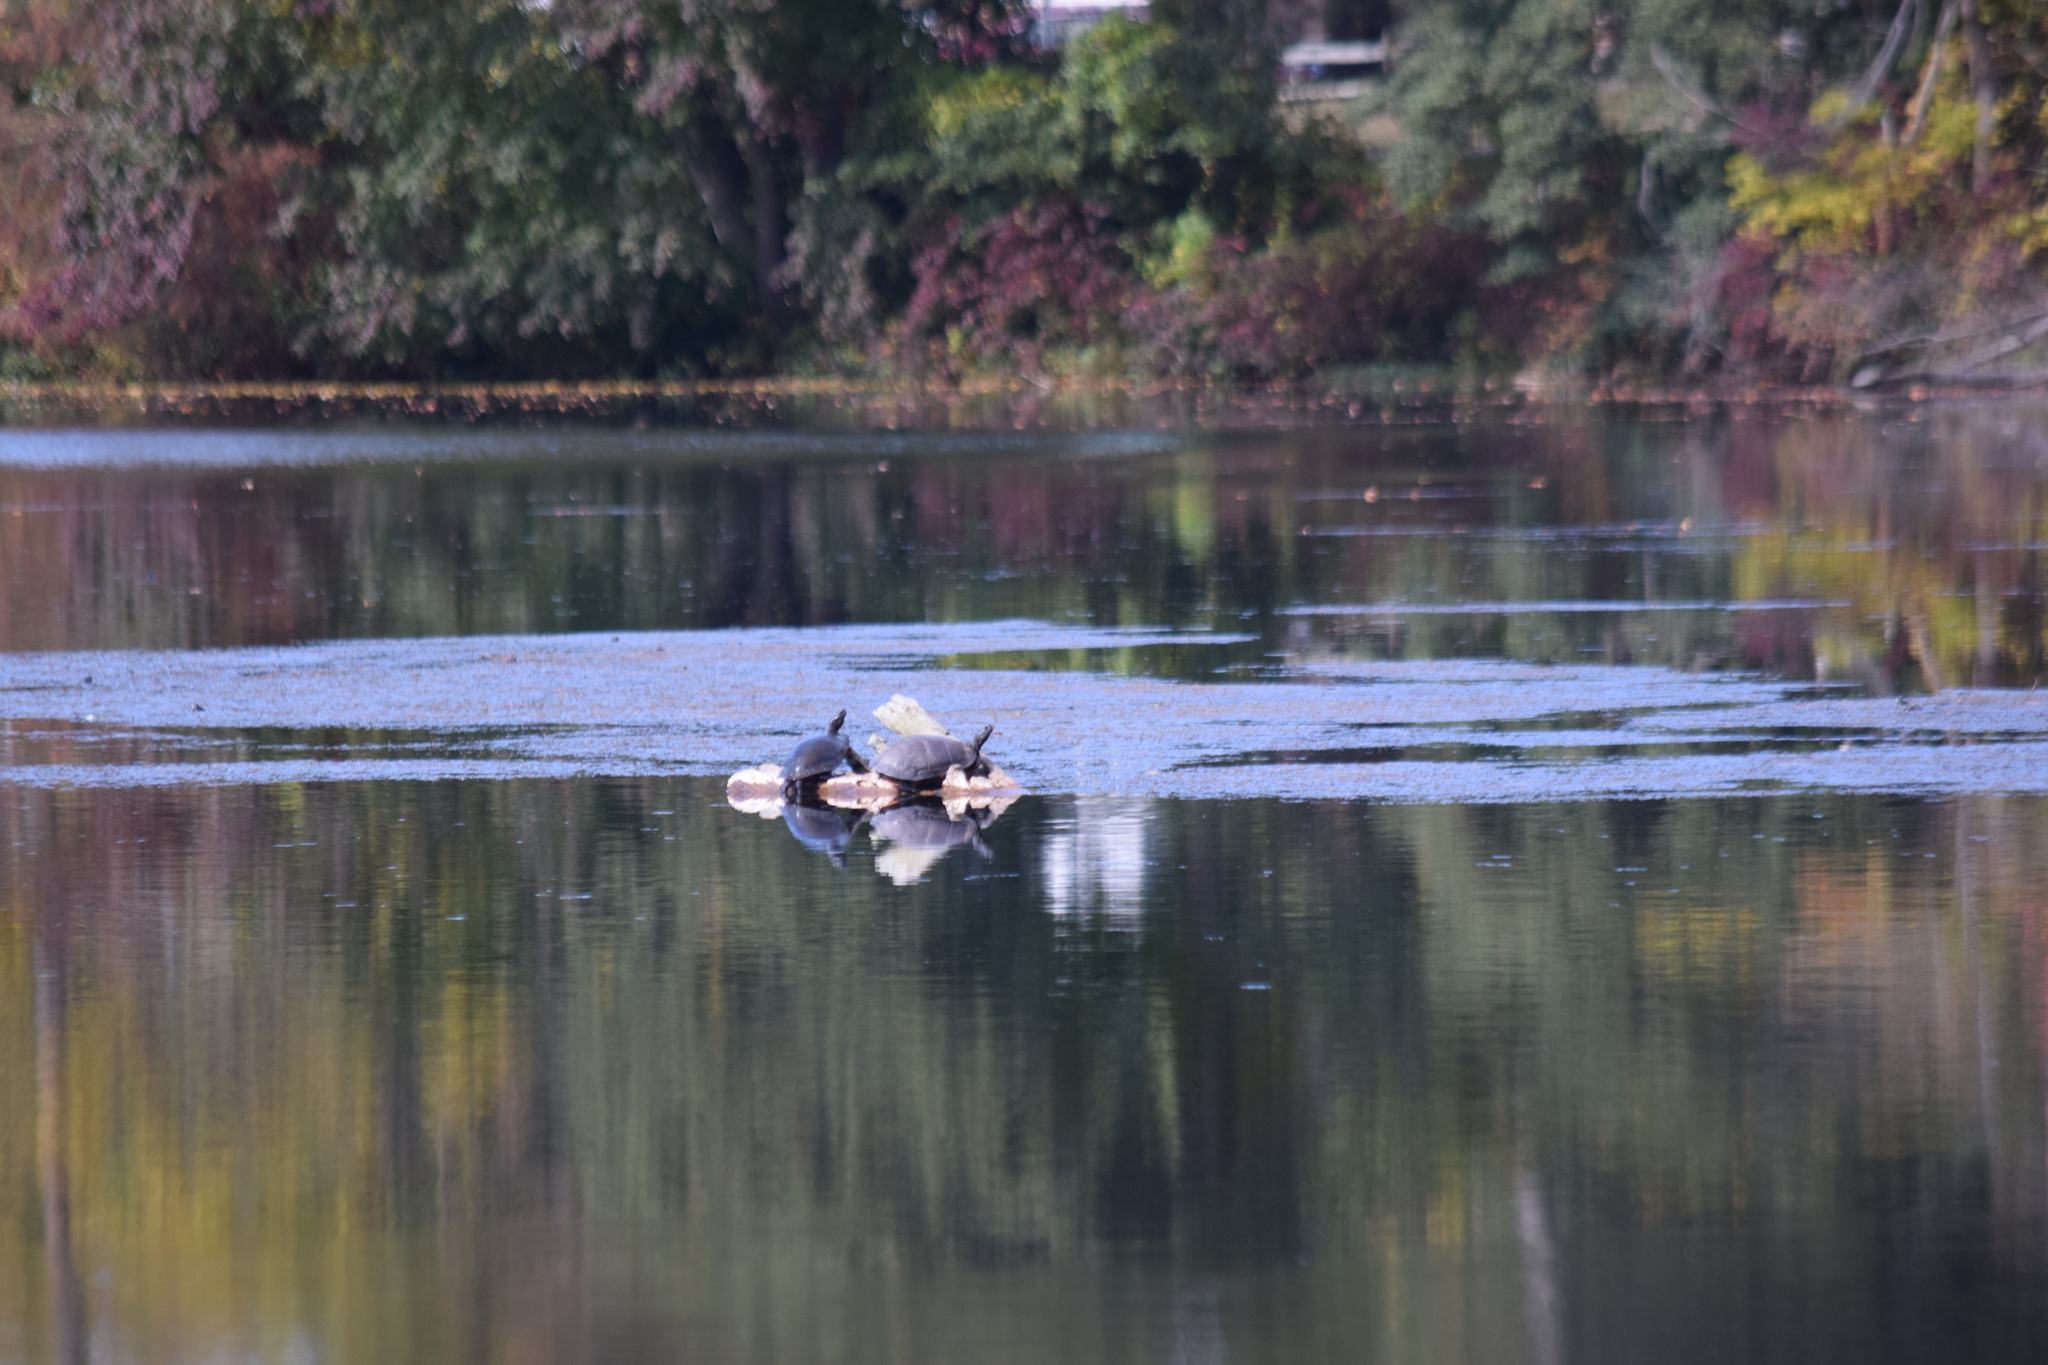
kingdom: Animalia
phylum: Chordata
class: Testudines
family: Emydidae
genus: Pseudemys
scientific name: Pseudemys rubriventris
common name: American red-bellied turtle
